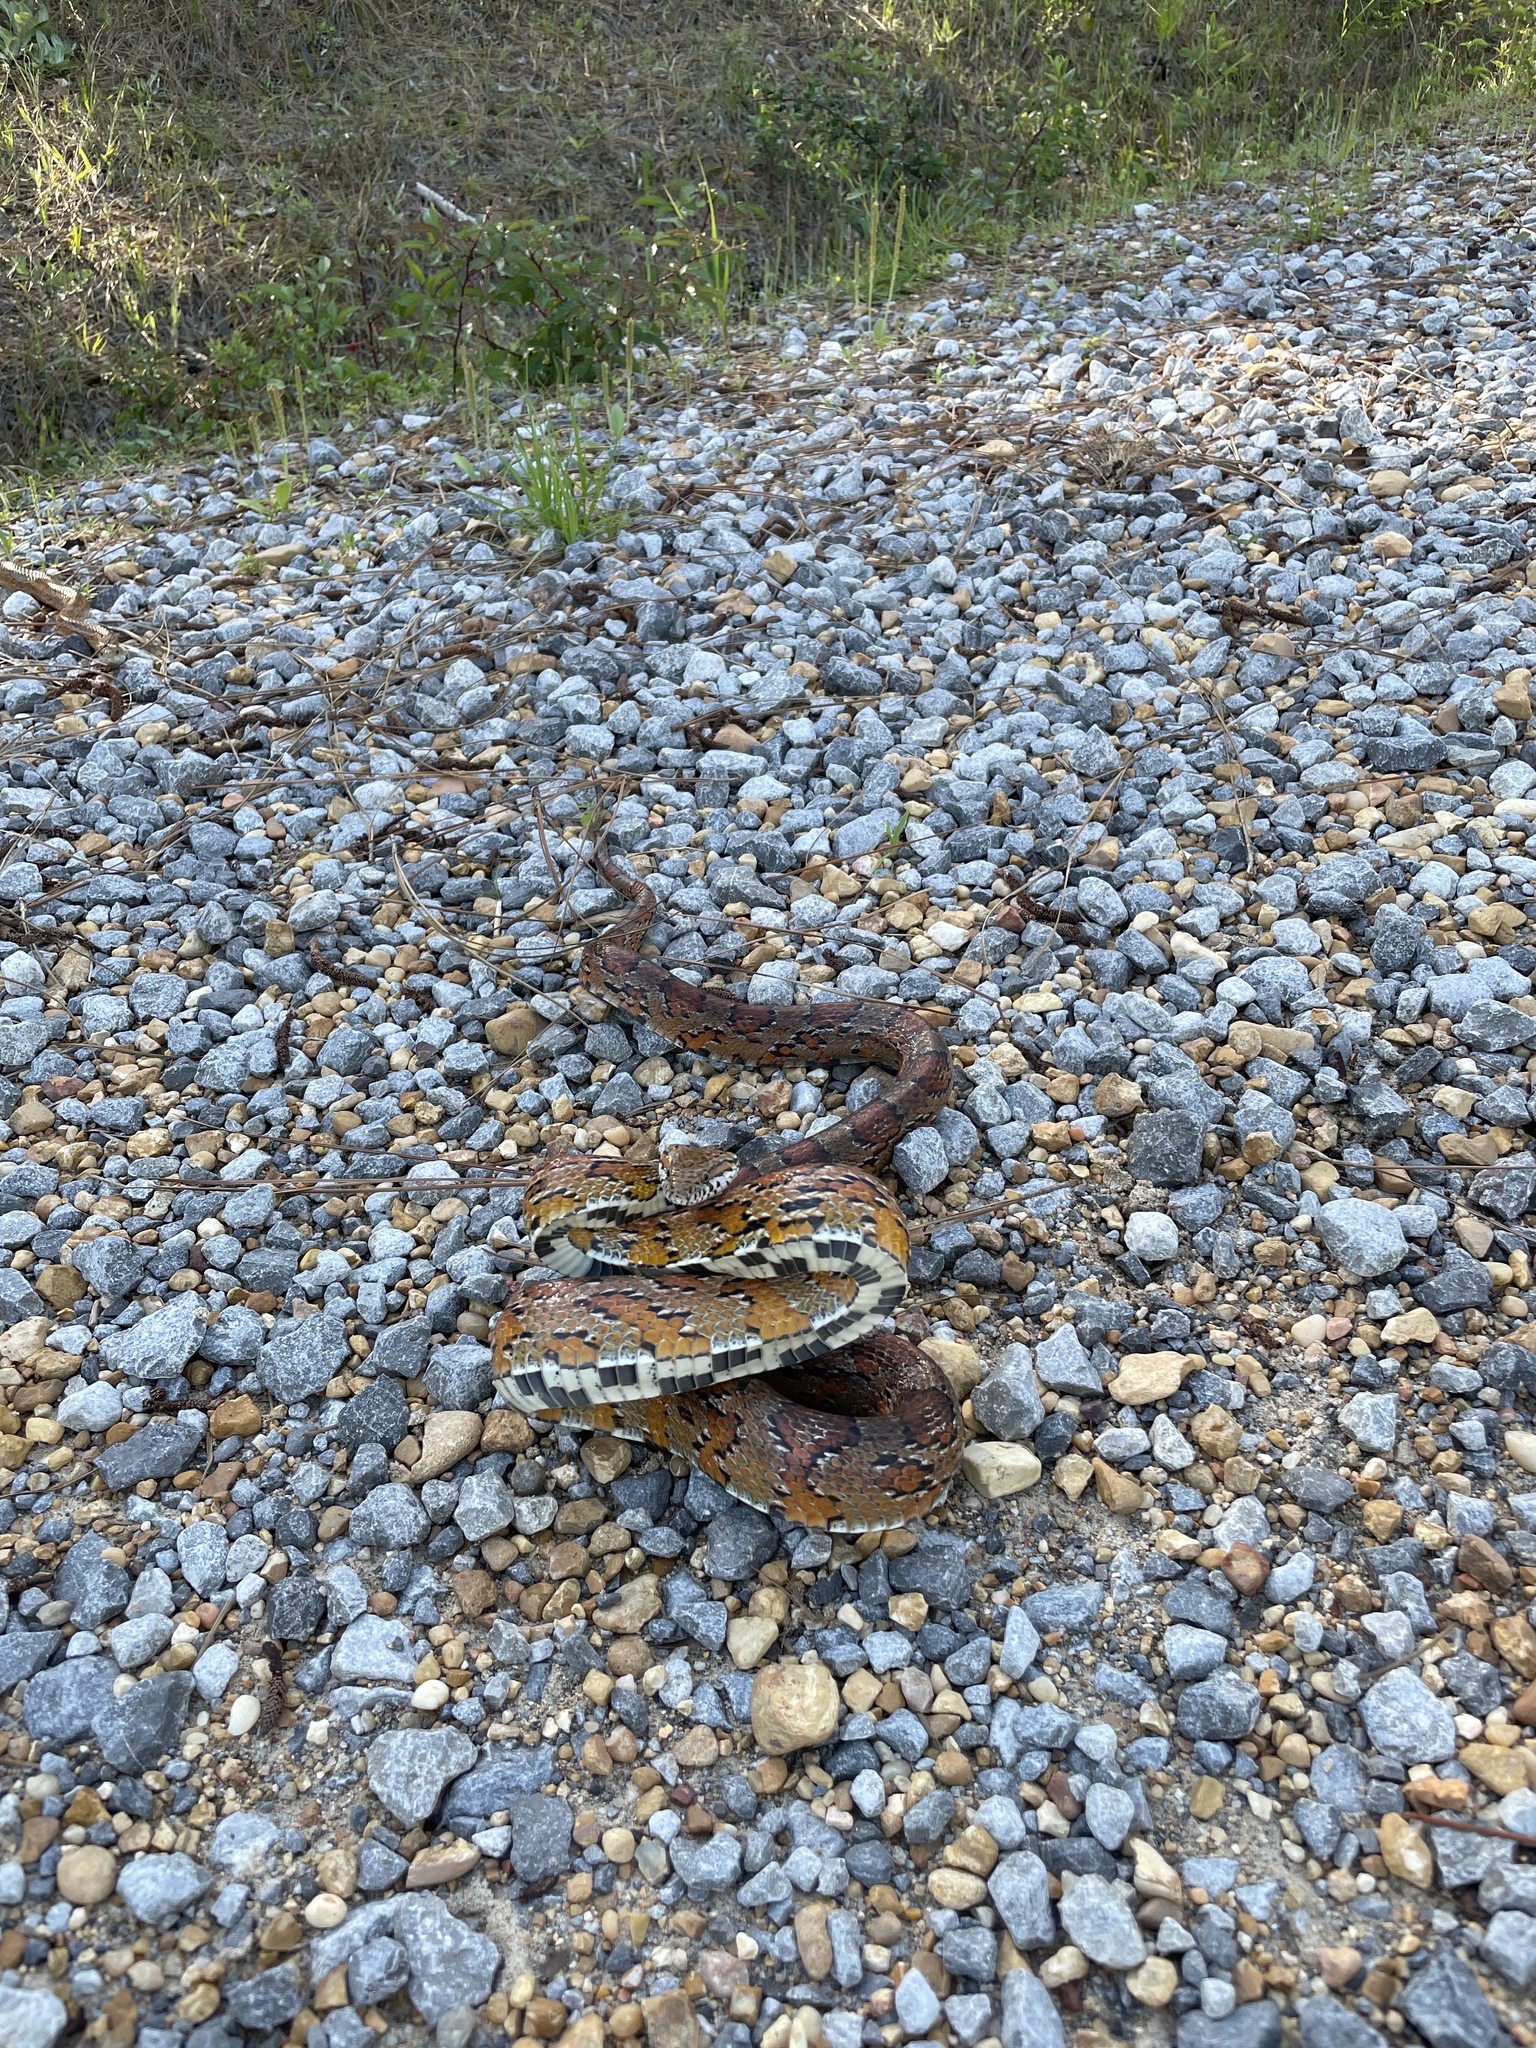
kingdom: Animalia
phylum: Chordata
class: Squamata
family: Colubridae
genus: Pantherophis
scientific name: Pantherophis guttatus
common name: Red cornsnake
